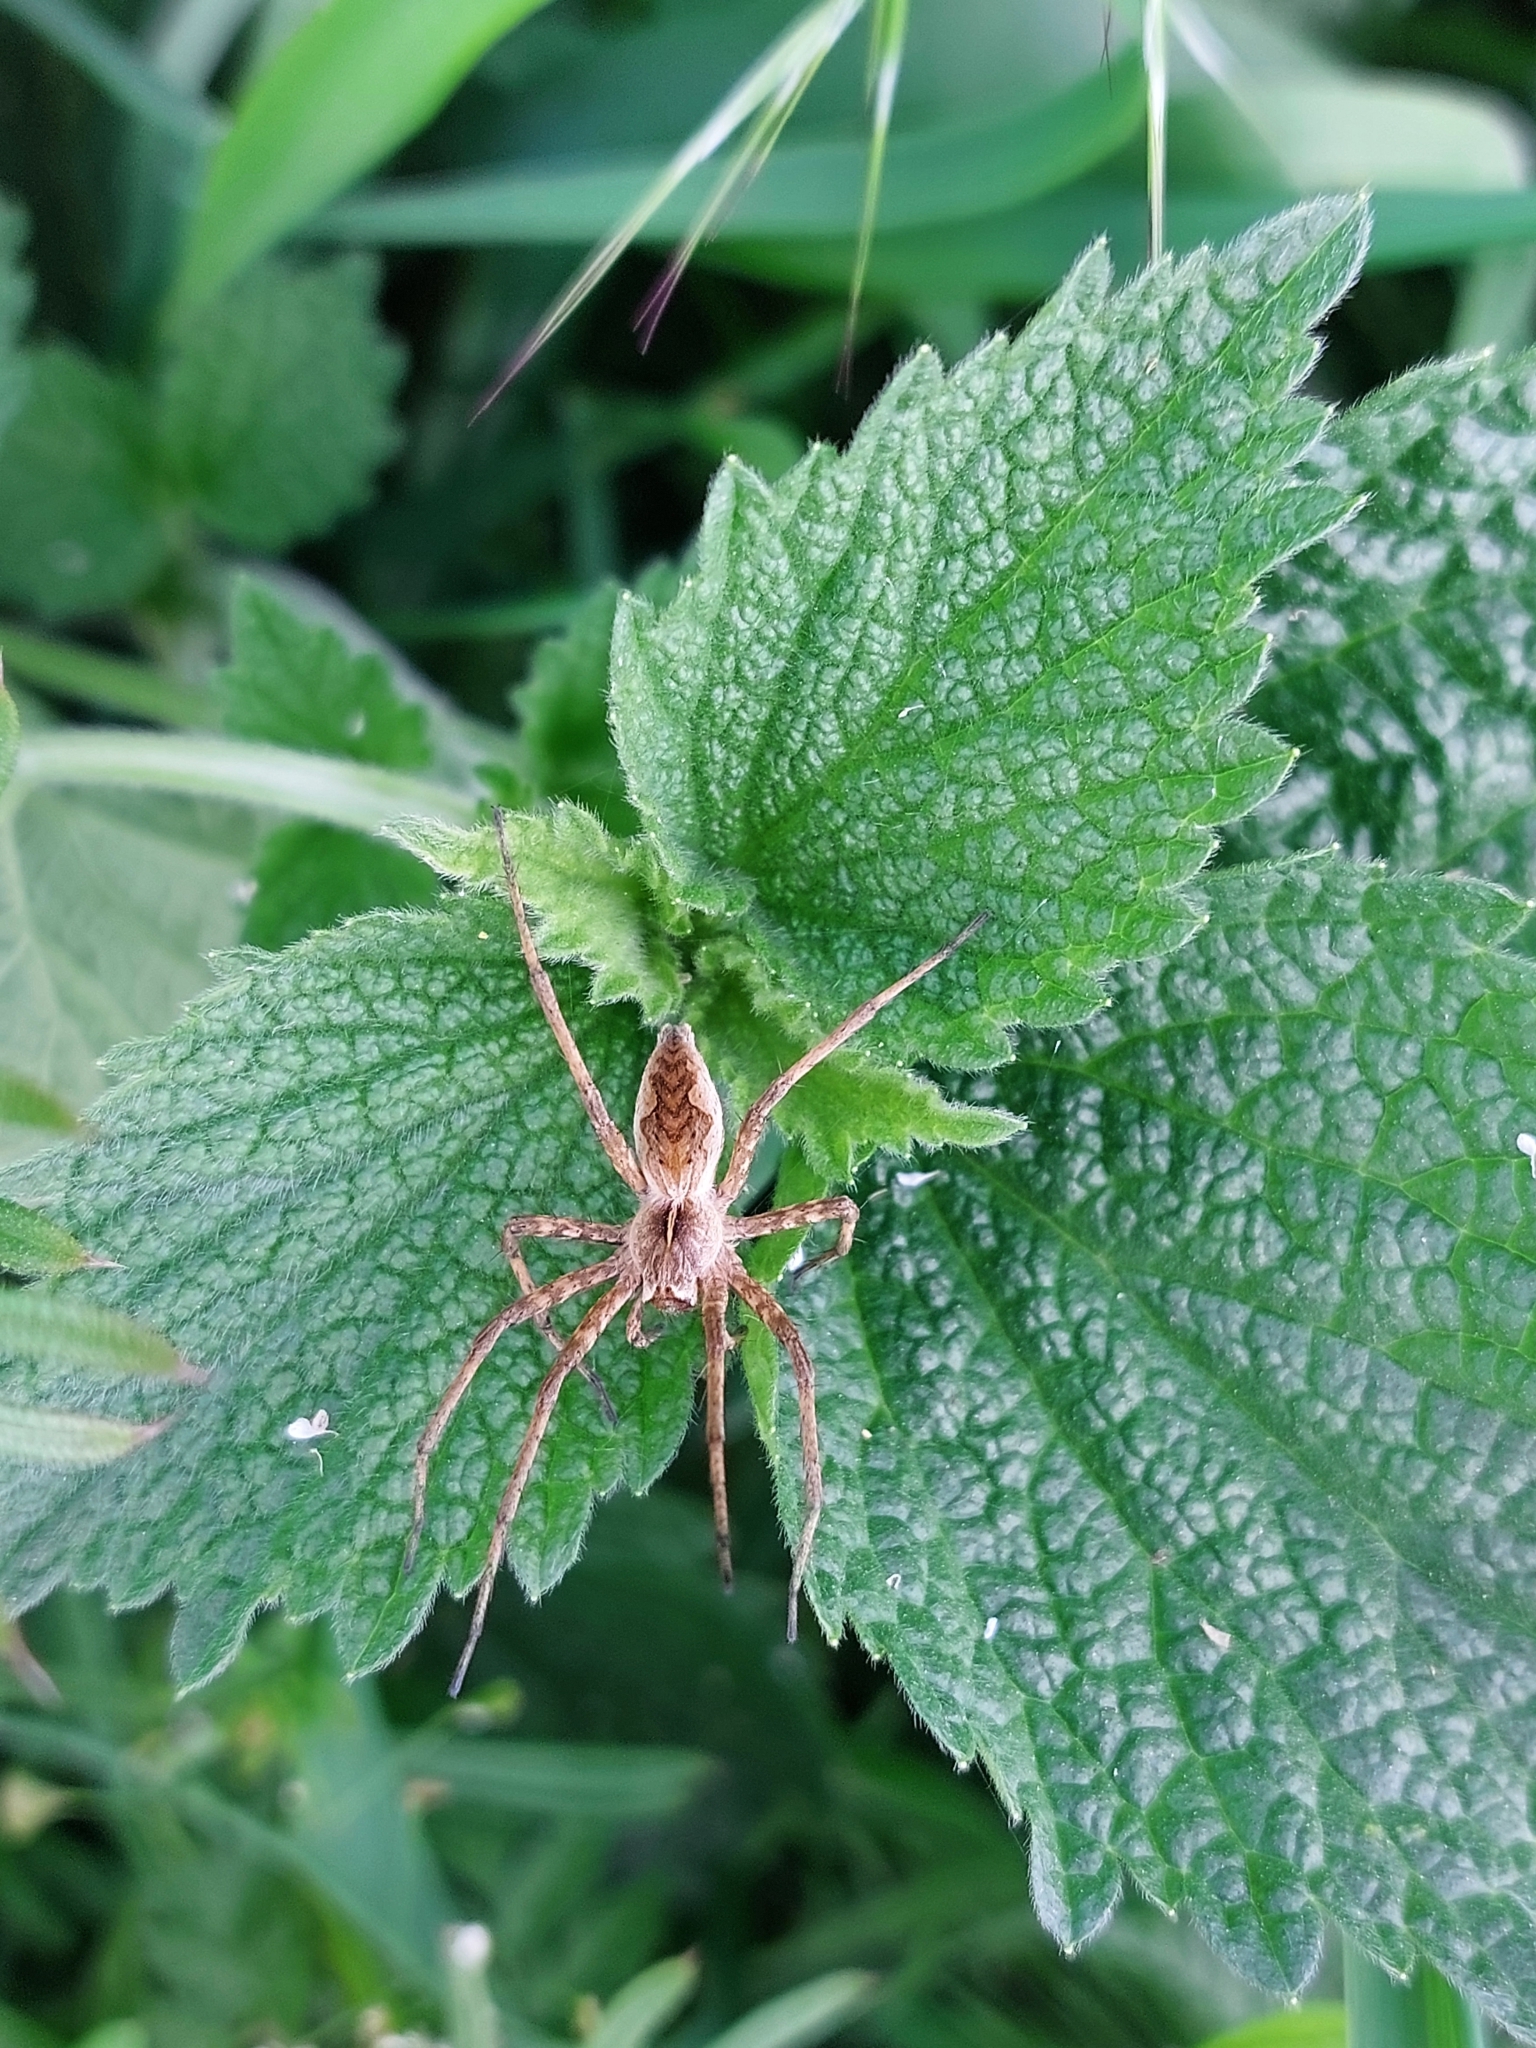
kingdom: Animalia
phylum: Arthropoda
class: Arachnida
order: Araneae
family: Pisauridae
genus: Pisaura
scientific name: Pisaura
